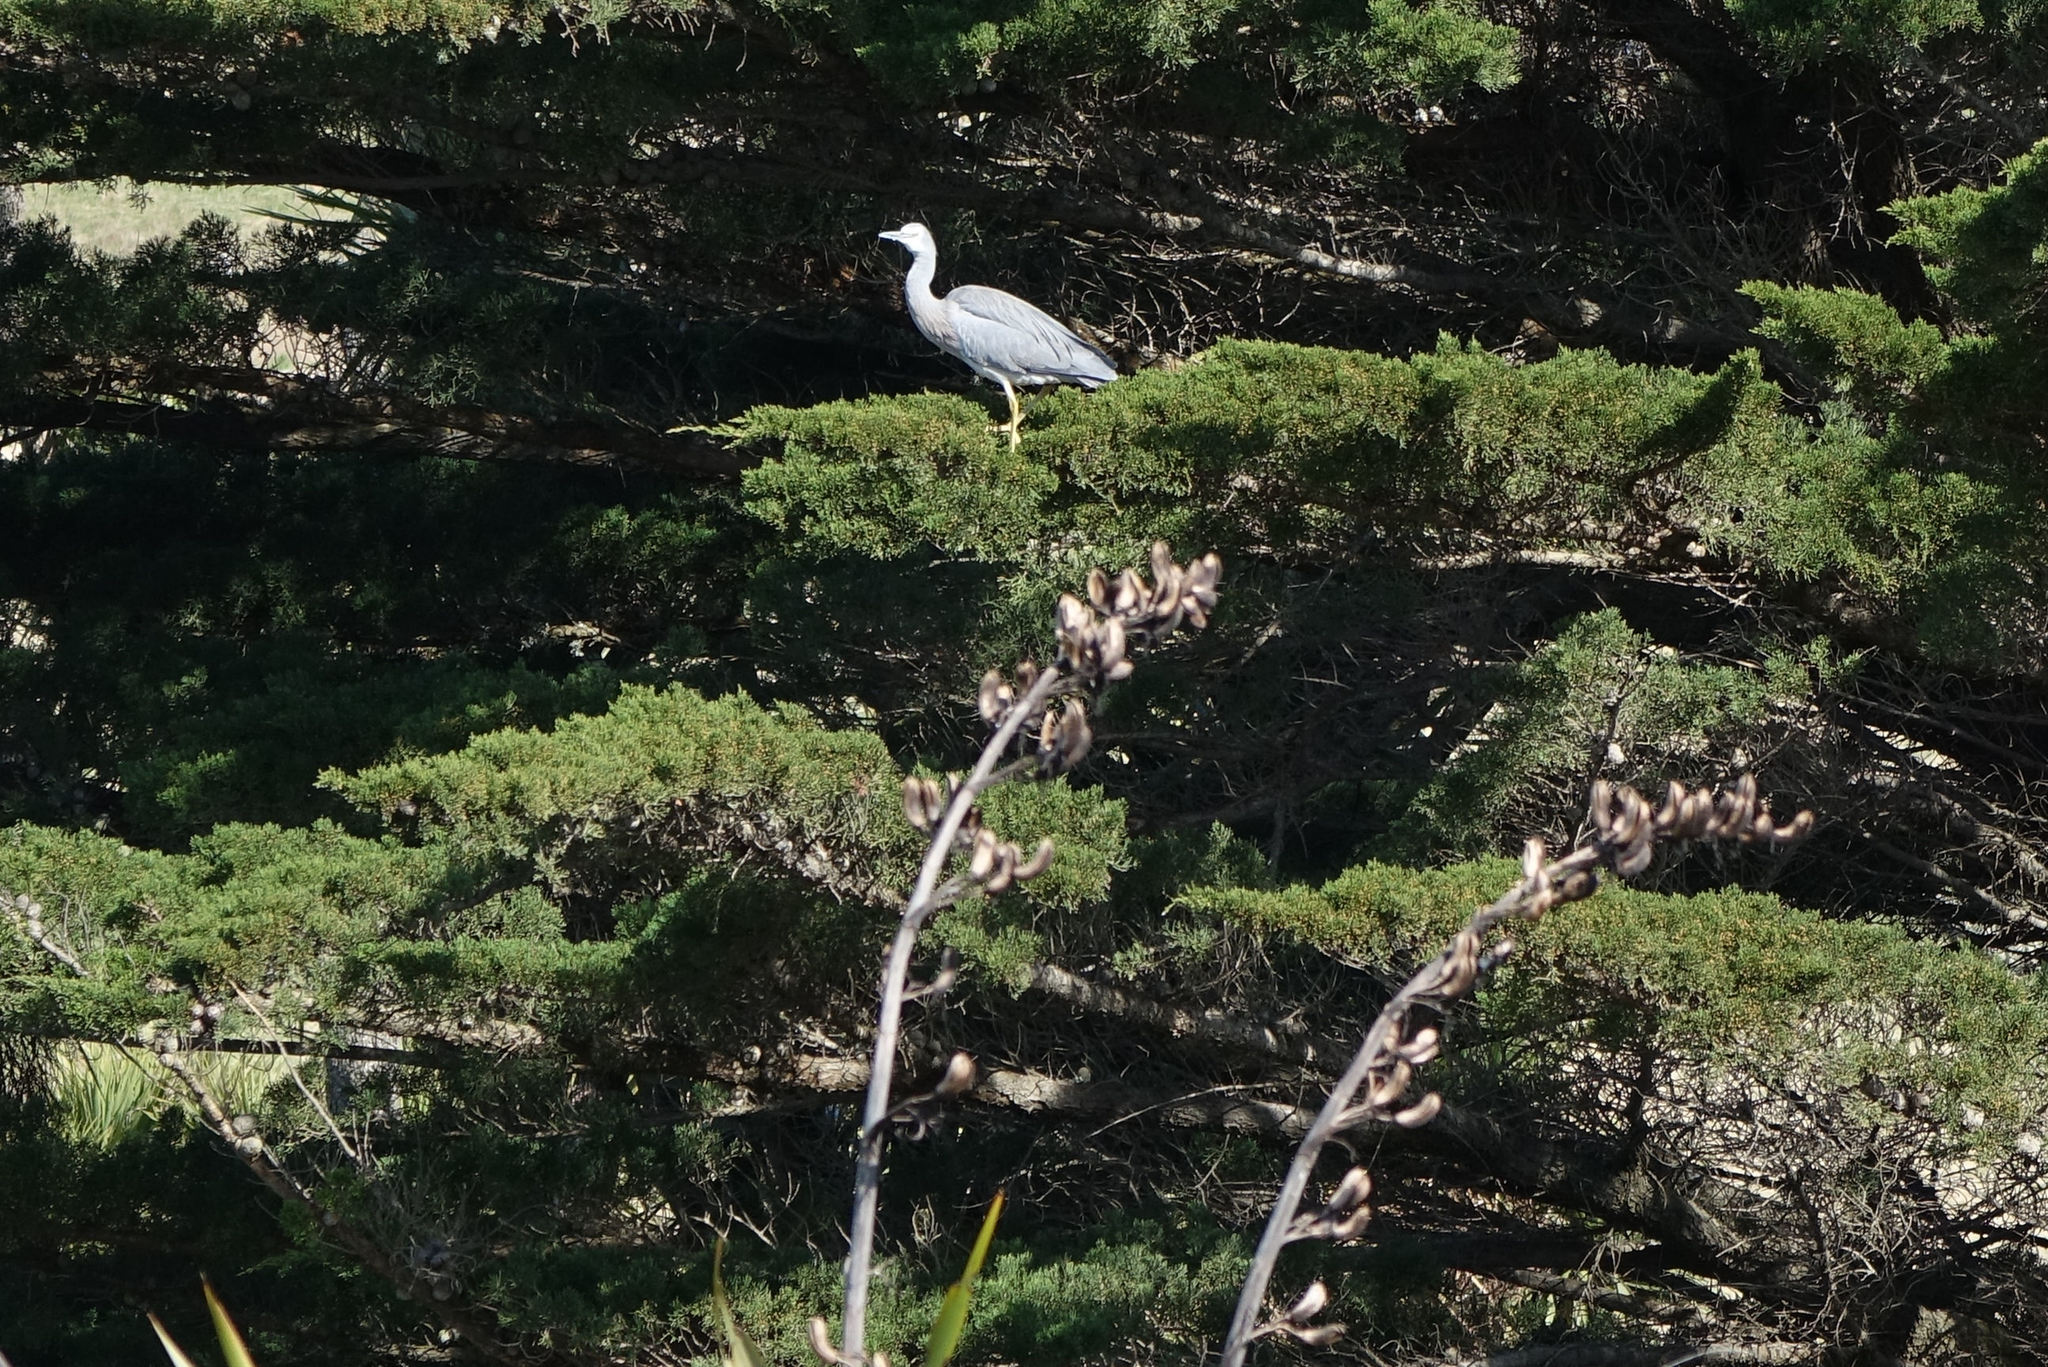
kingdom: Animalia
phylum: Chordata
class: Aves
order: Pelecaniformes
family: Ardeidae
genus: Egretta
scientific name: Egretta novaehollandiae
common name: White-faced heron
